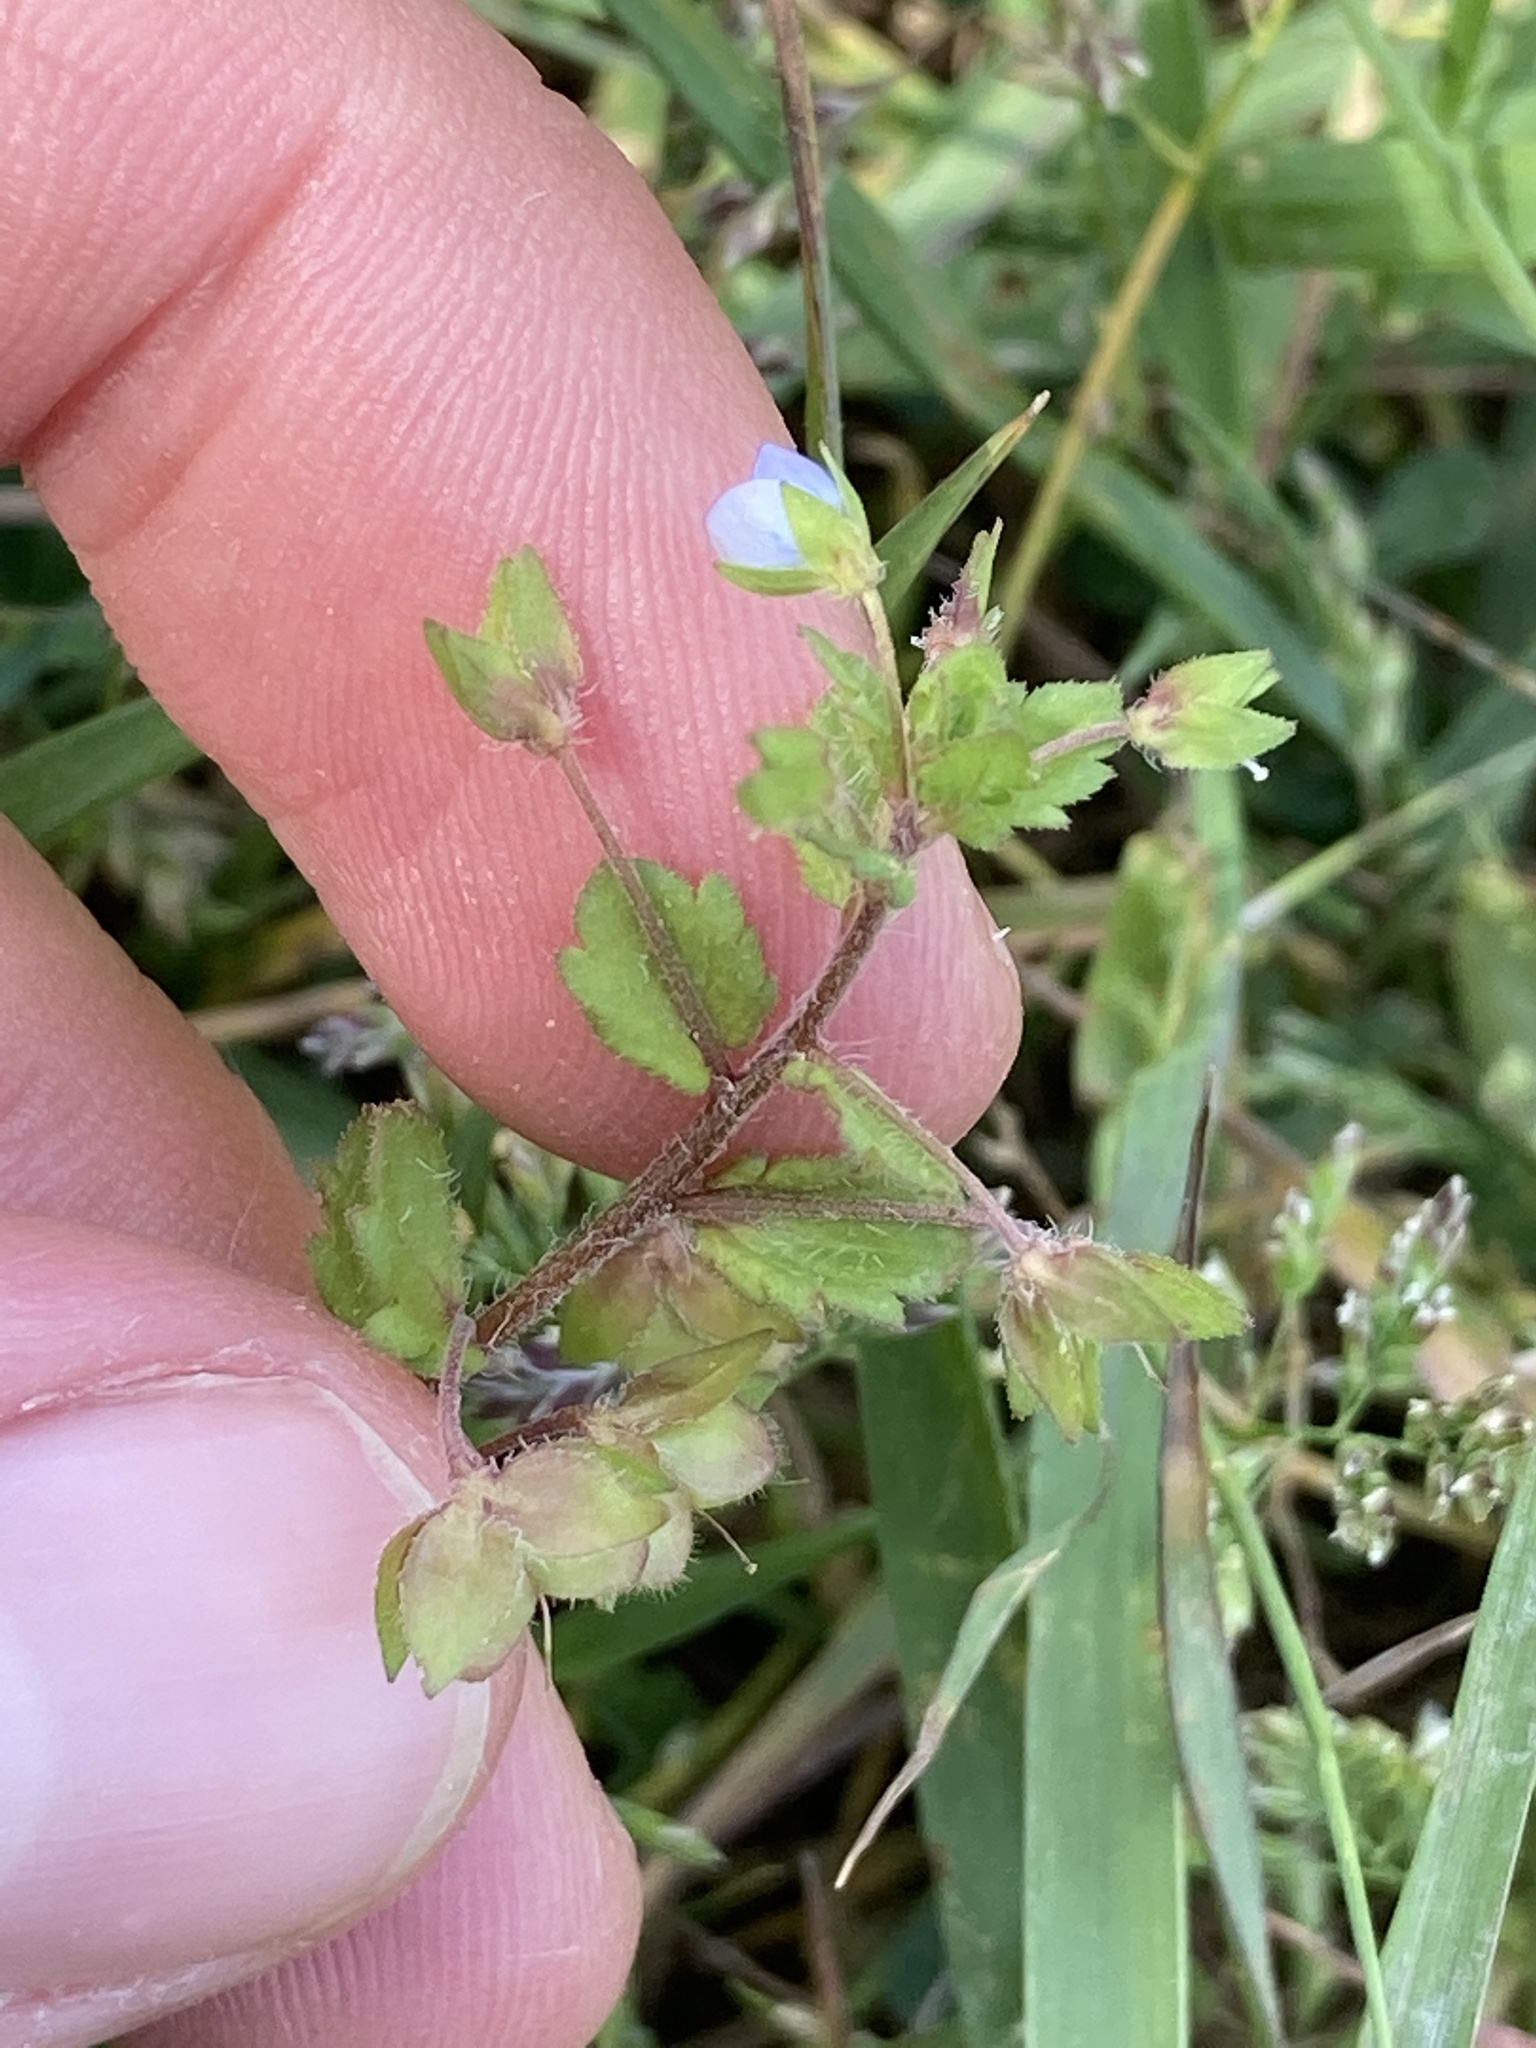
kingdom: Plantae
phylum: Tracheophyta
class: Magnoliopsida
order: Lamiales
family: Plantaginaceae
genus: Veronica
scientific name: Veronica persica
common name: Common field-speedwell
